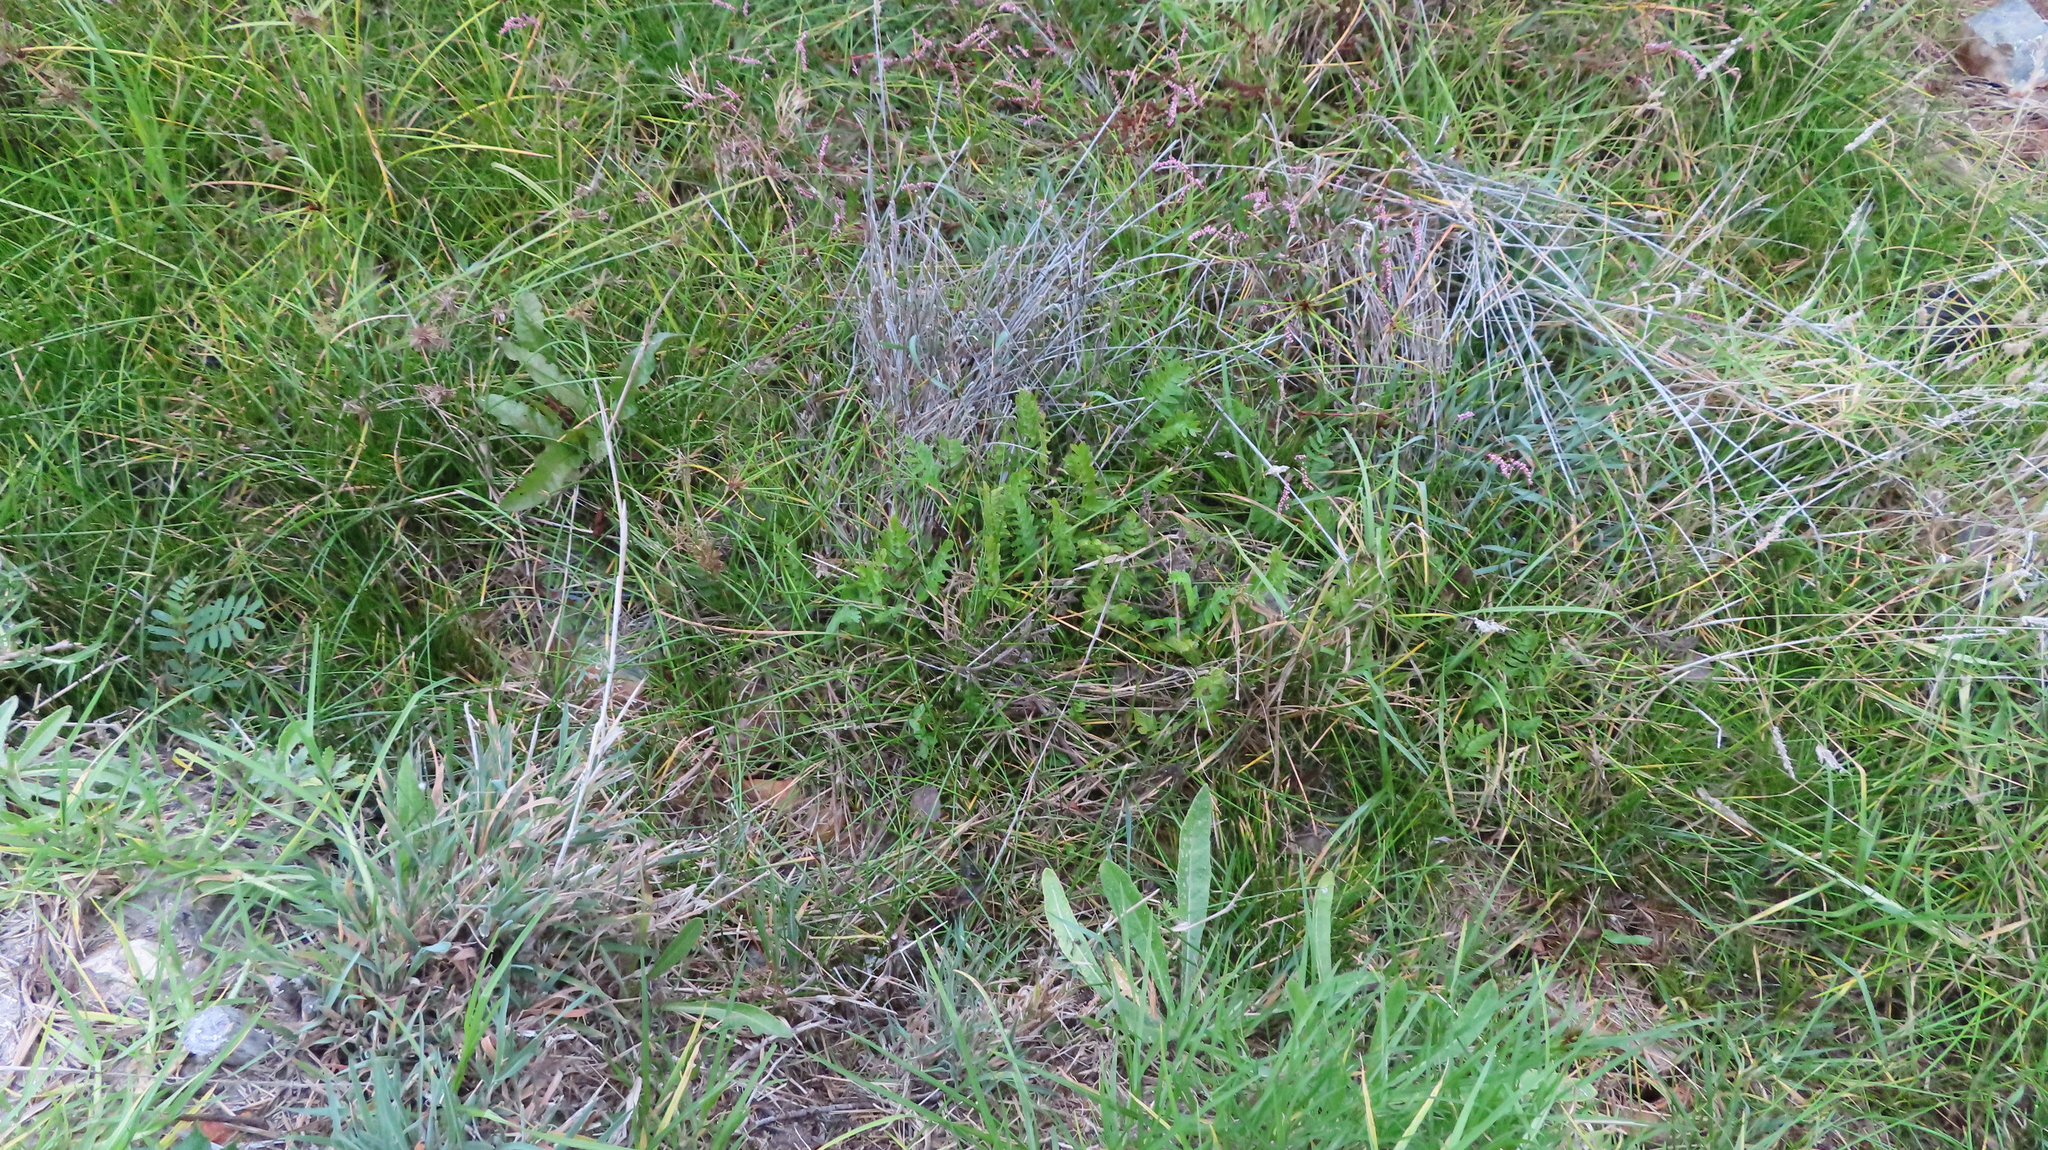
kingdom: Plantae
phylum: Tracheophyta
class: Magnoliopsida
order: Apiales
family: Apiaceae
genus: Berula
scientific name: Berula thunbergii
